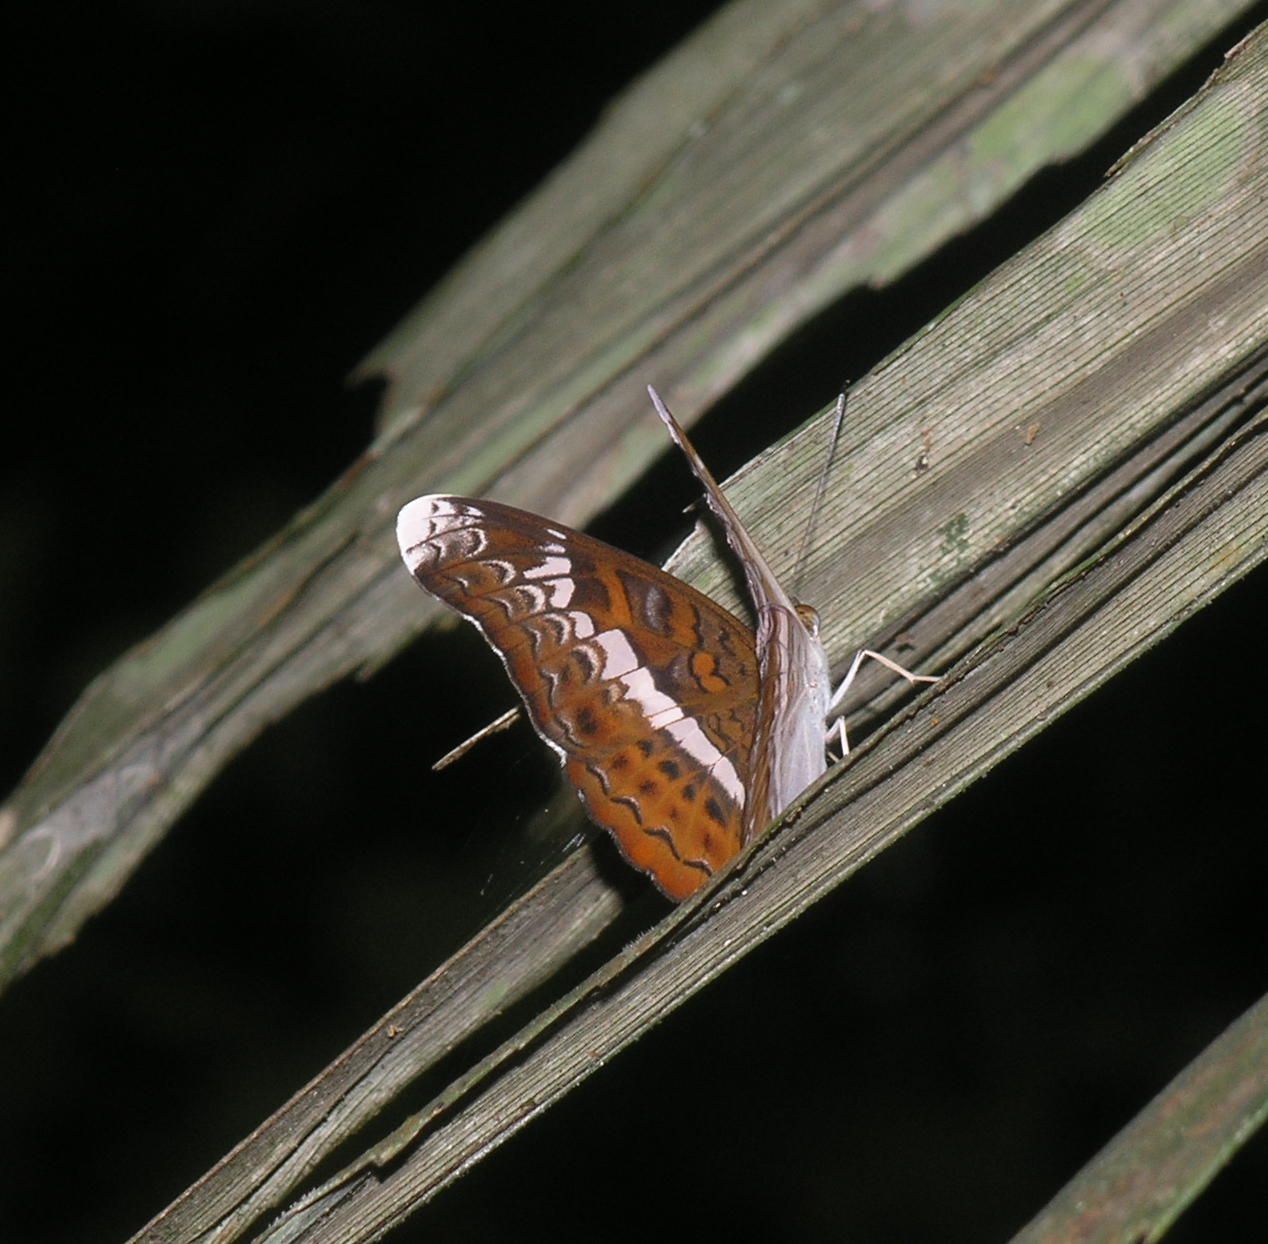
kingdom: Animalia
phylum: Arthropoda
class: Insecta
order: Lepidoptera
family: Nymphalidae
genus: Lebadea
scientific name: Lebadea martha
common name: Knight
